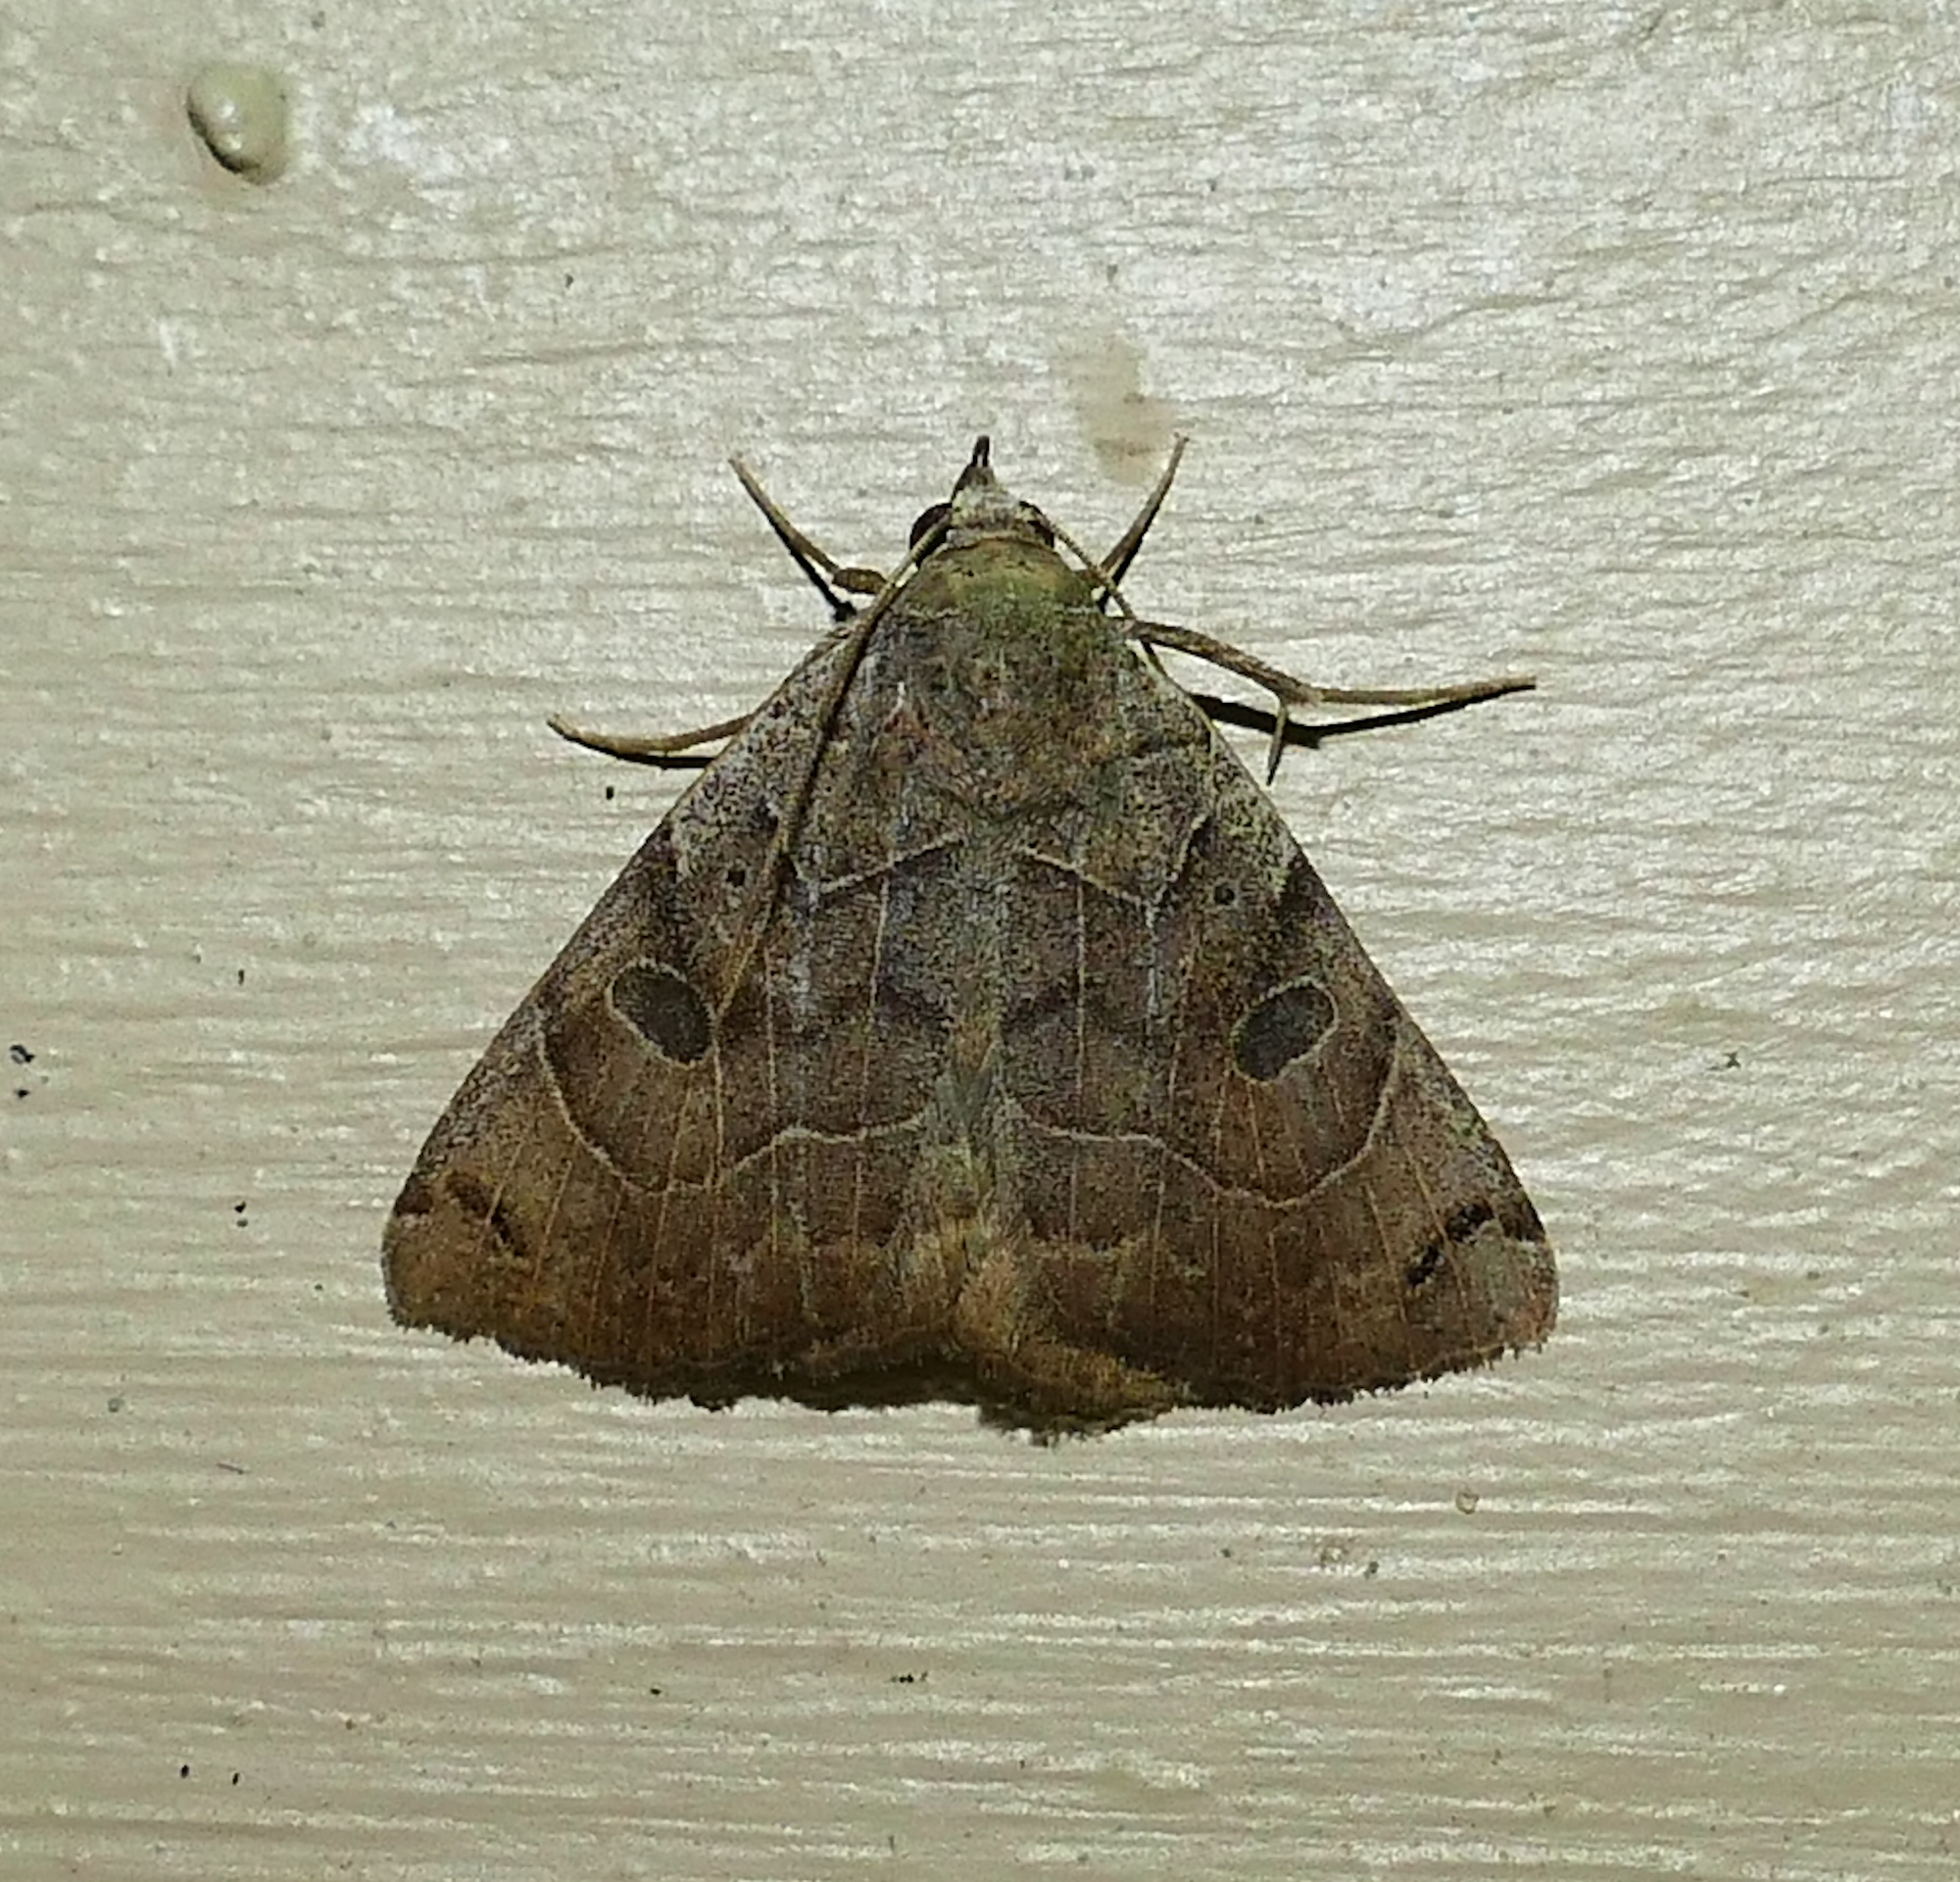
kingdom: Animalia
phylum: Arthropoda
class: Insecta
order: Lepidoptera
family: Erebidae
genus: Isogona
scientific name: Isogona scindens
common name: Owlet moth
